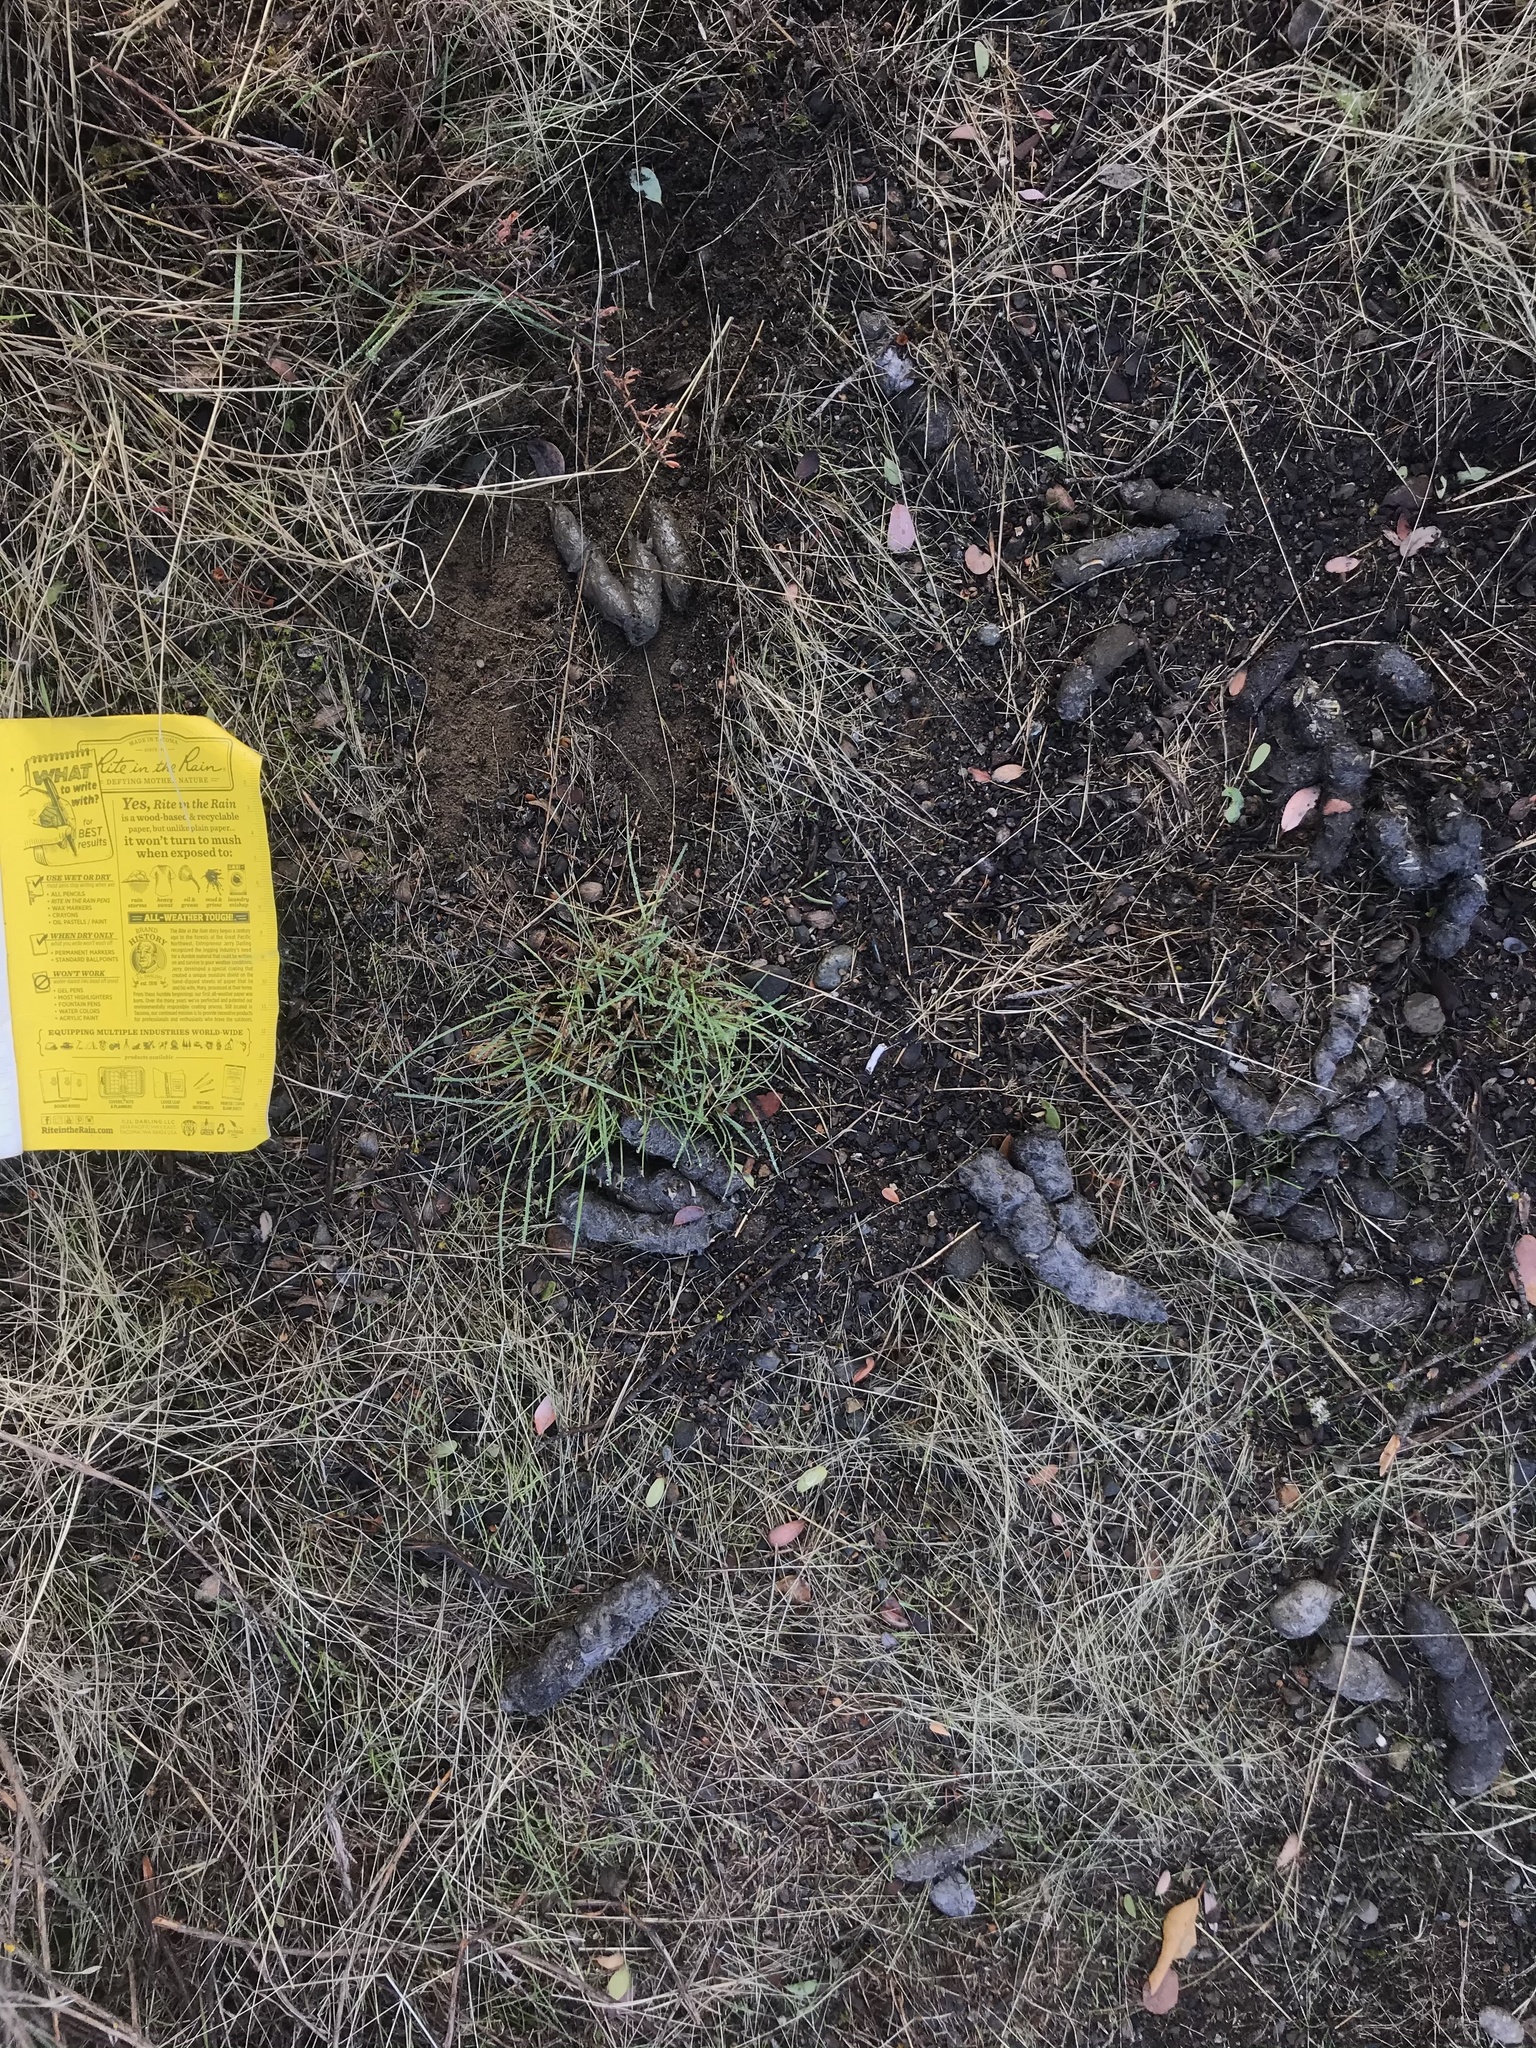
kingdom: Animalia
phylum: Chordata
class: Mammalia
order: Carnivora
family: Felidae
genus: Lynx
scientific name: Lynx rufus
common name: Bobcat
